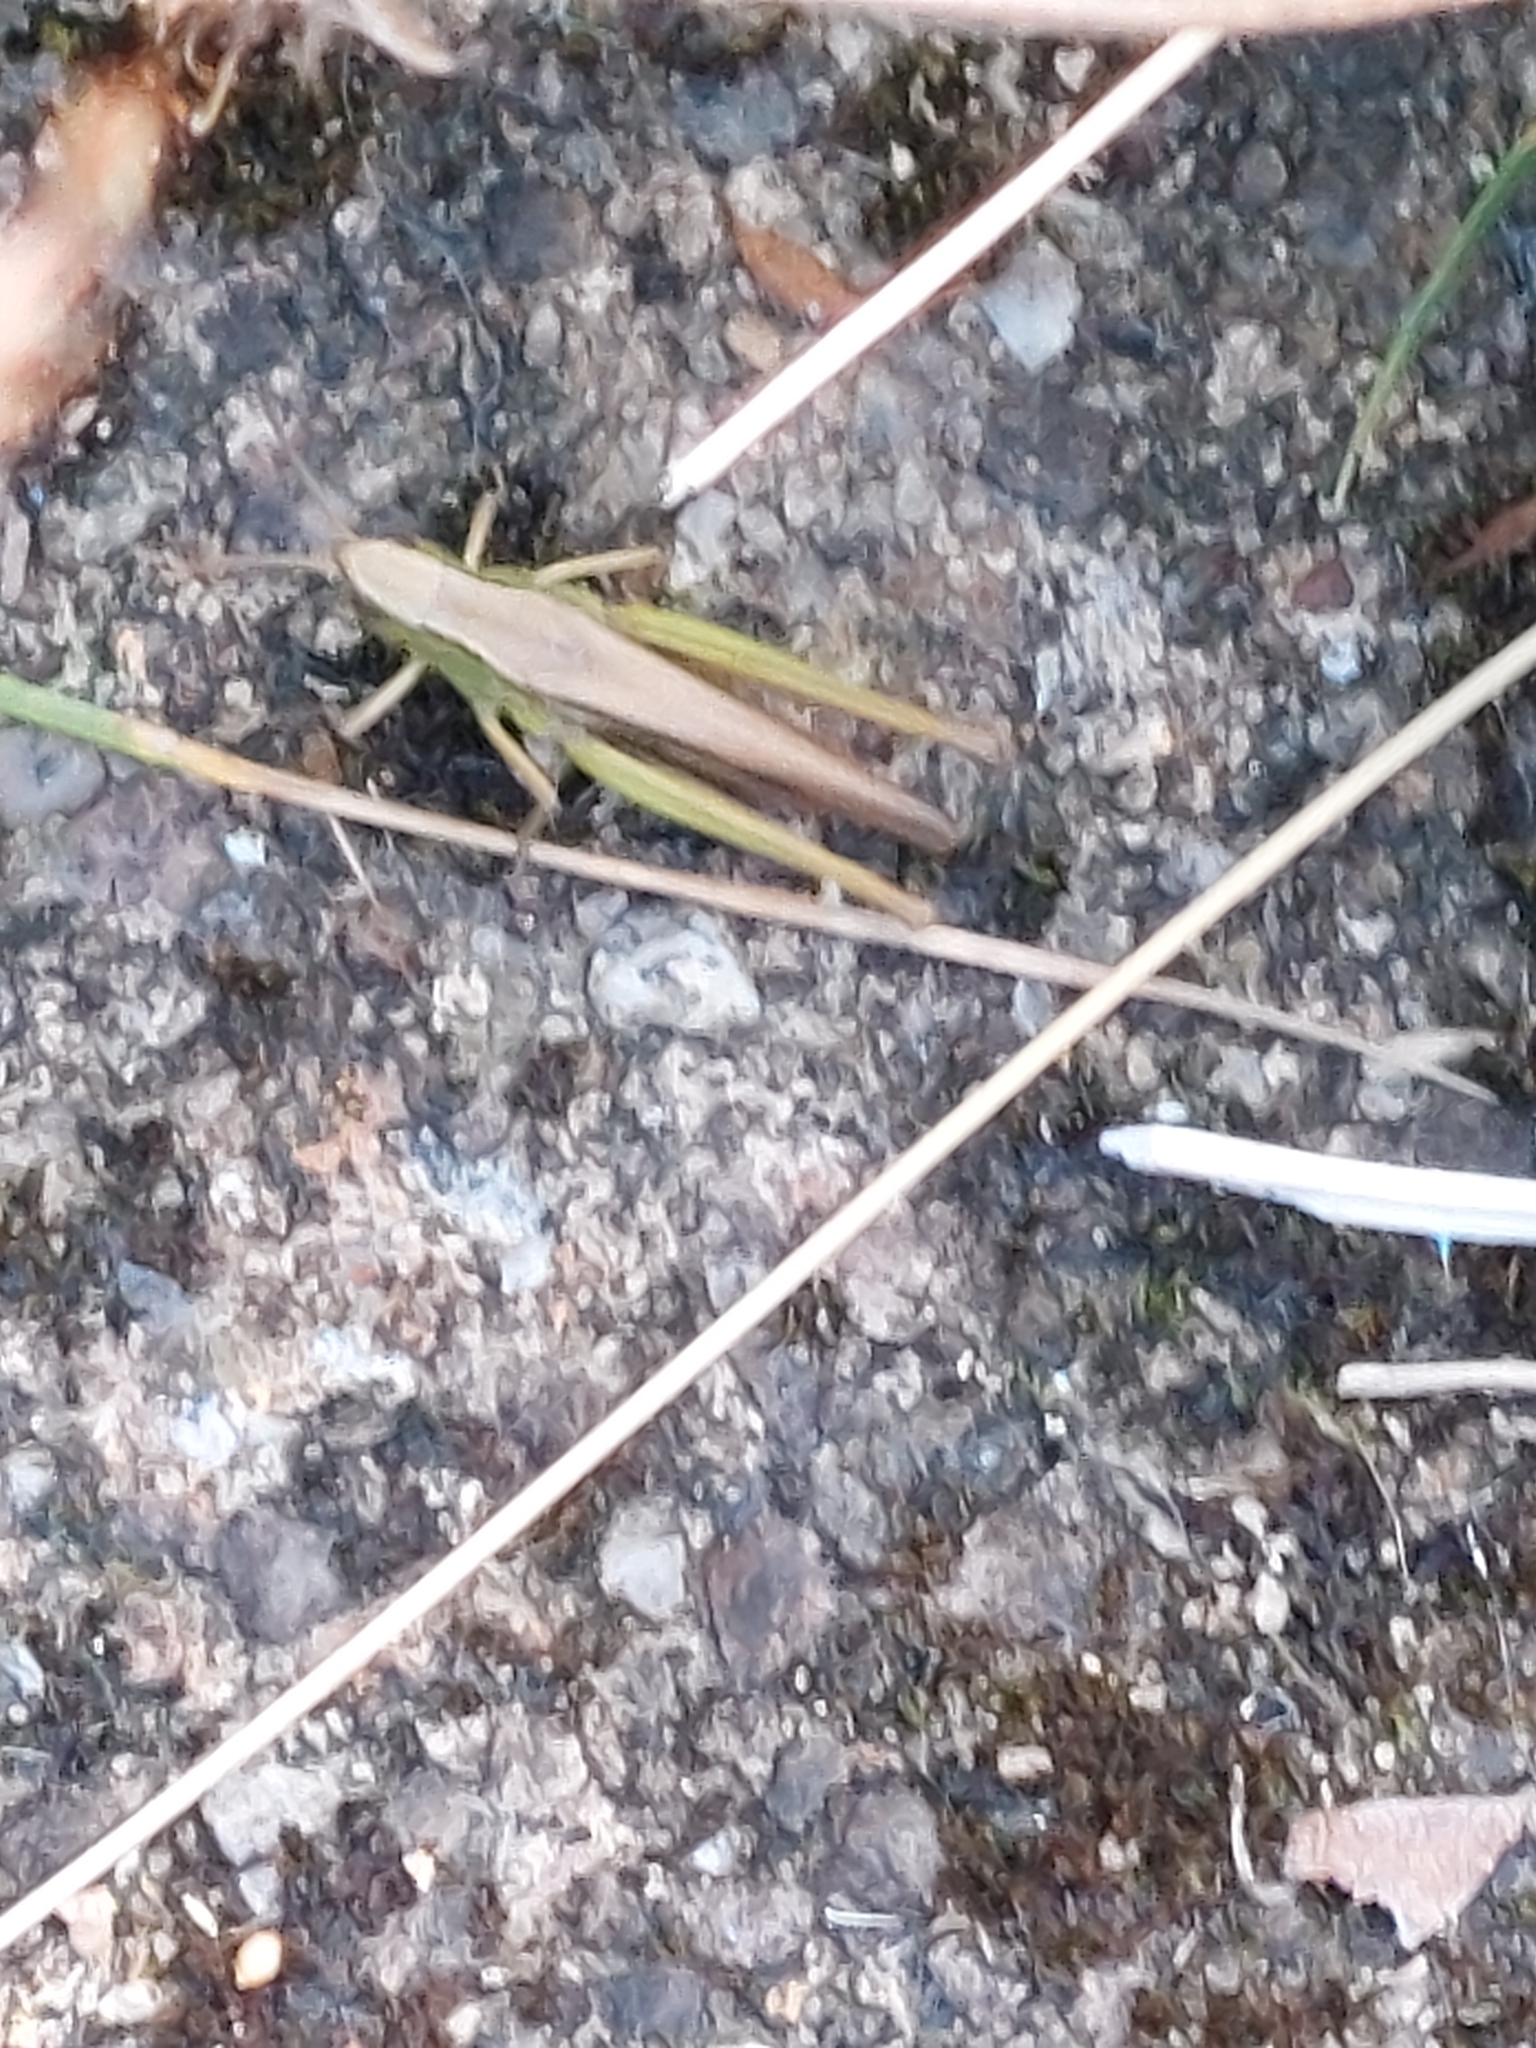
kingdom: Animalia
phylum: Arthropoda
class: Insecta
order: Orthoptera
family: Acrididae
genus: Chorthippus
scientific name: Chorthippus albomarginatus
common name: Lesser marsh grasshopper
